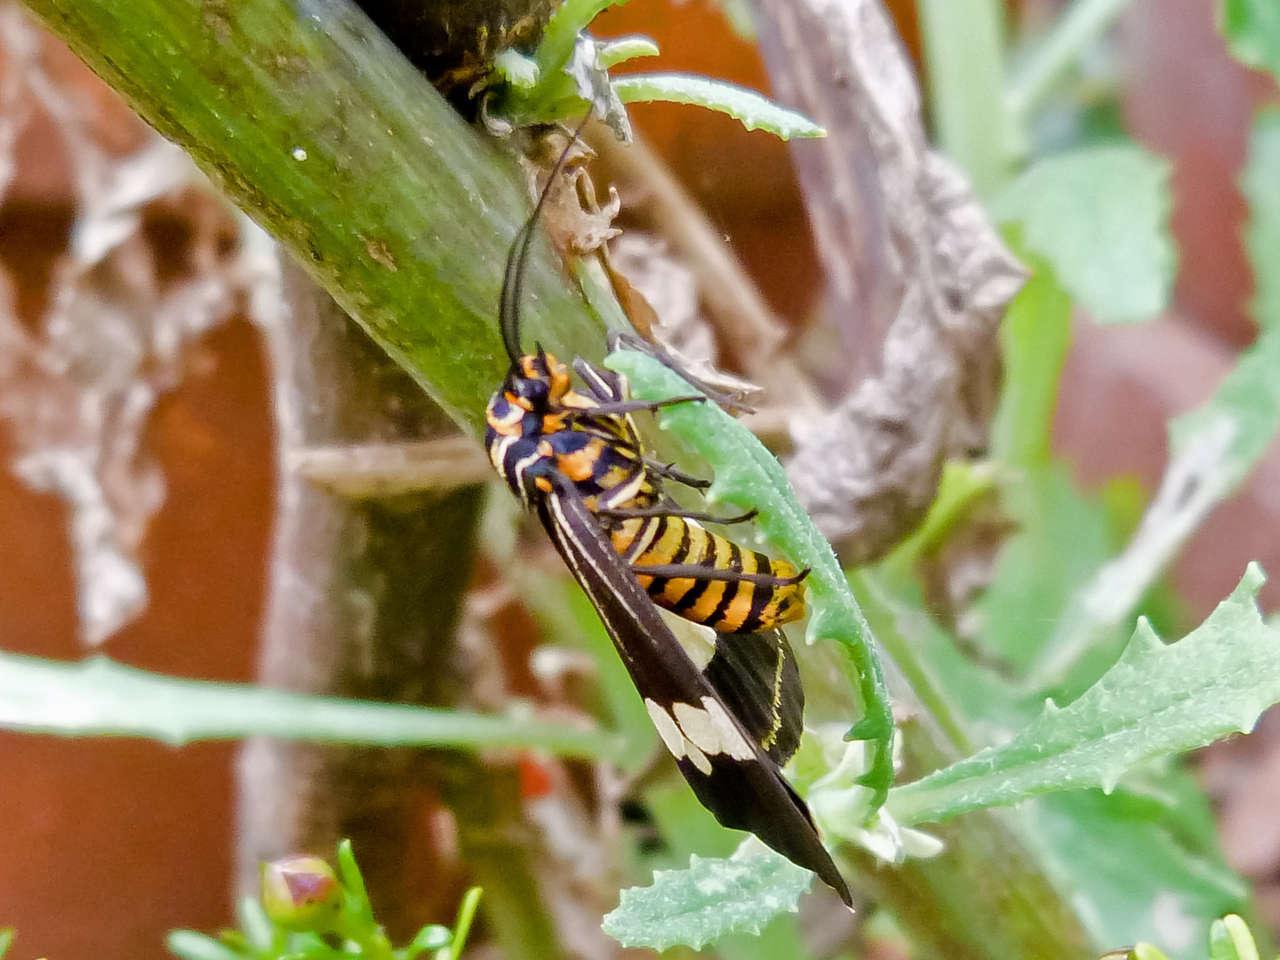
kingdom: Animalia
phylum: Arthropoda
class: Insecta
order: Lepidoptera
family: Erebidae
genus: Nyctemera
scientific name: Nyctemera amicus
